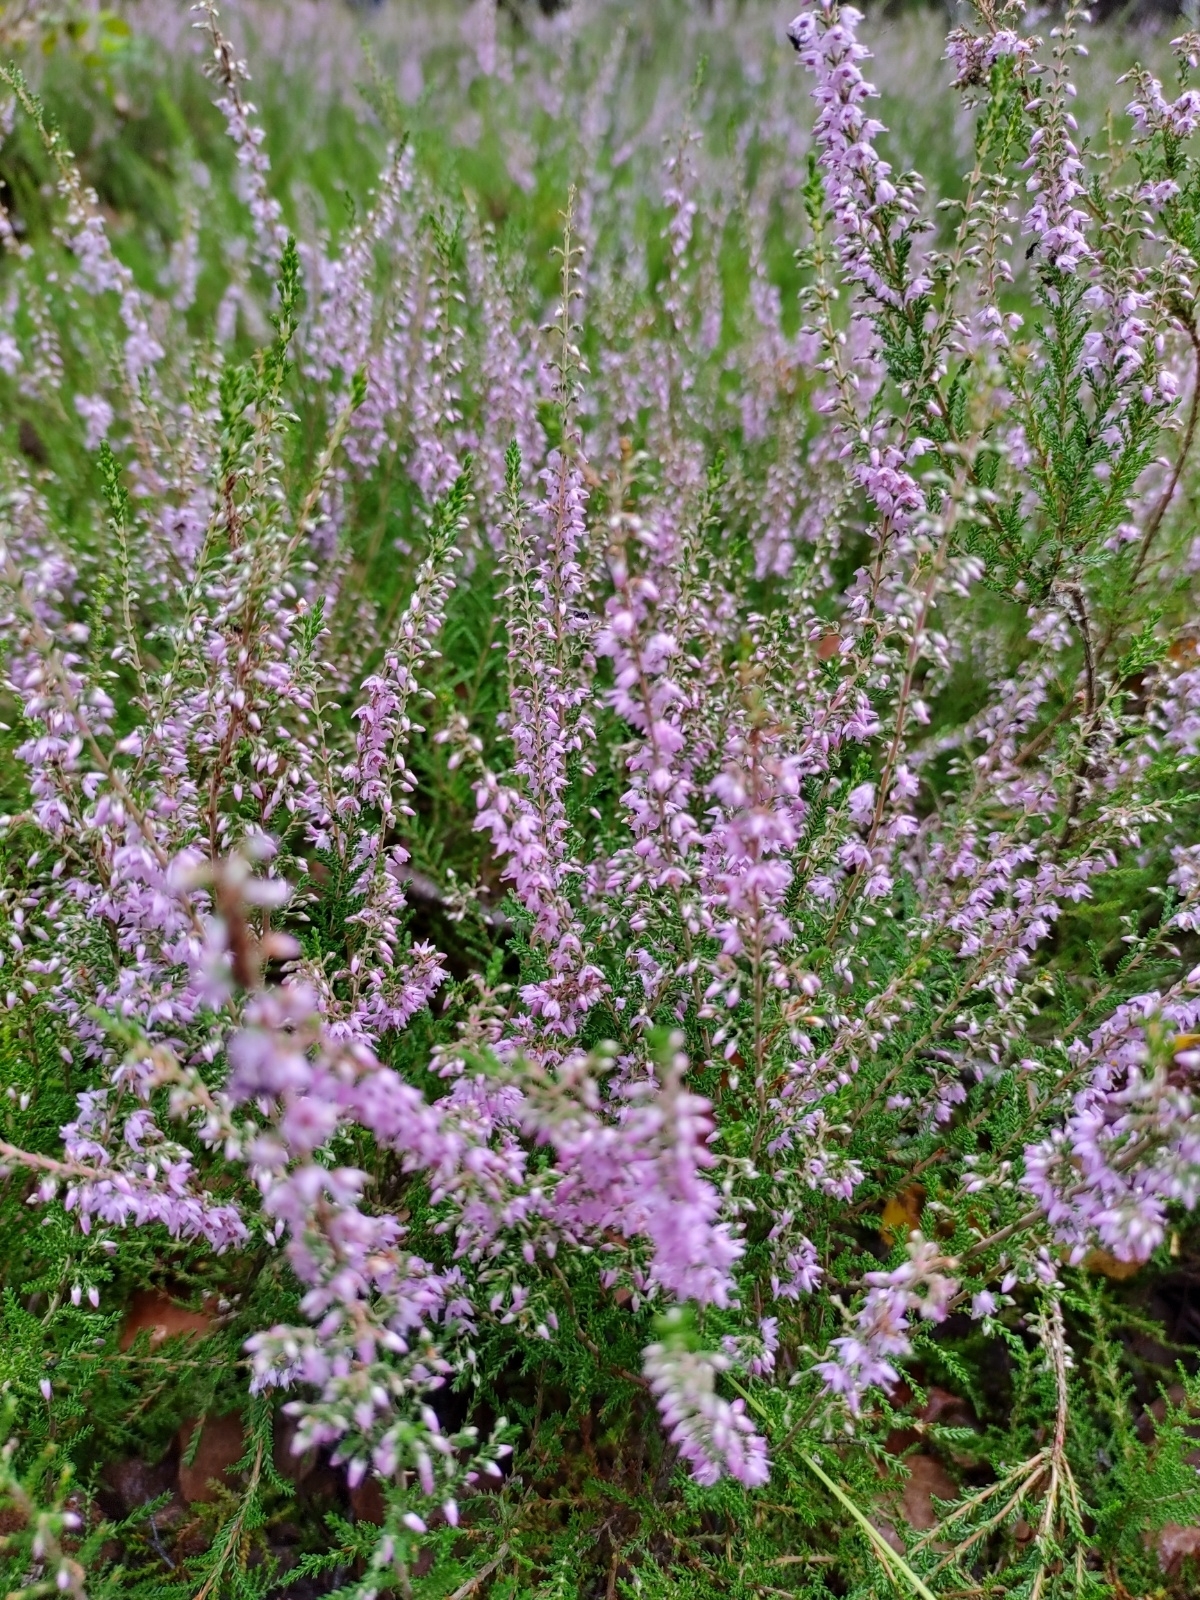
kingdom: Plantae
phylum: Tracheophyta
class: Magnoliopsida
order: Ericales
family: Ericaceae
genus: Calluna
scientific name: Calluna vulgaris
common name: Heather
